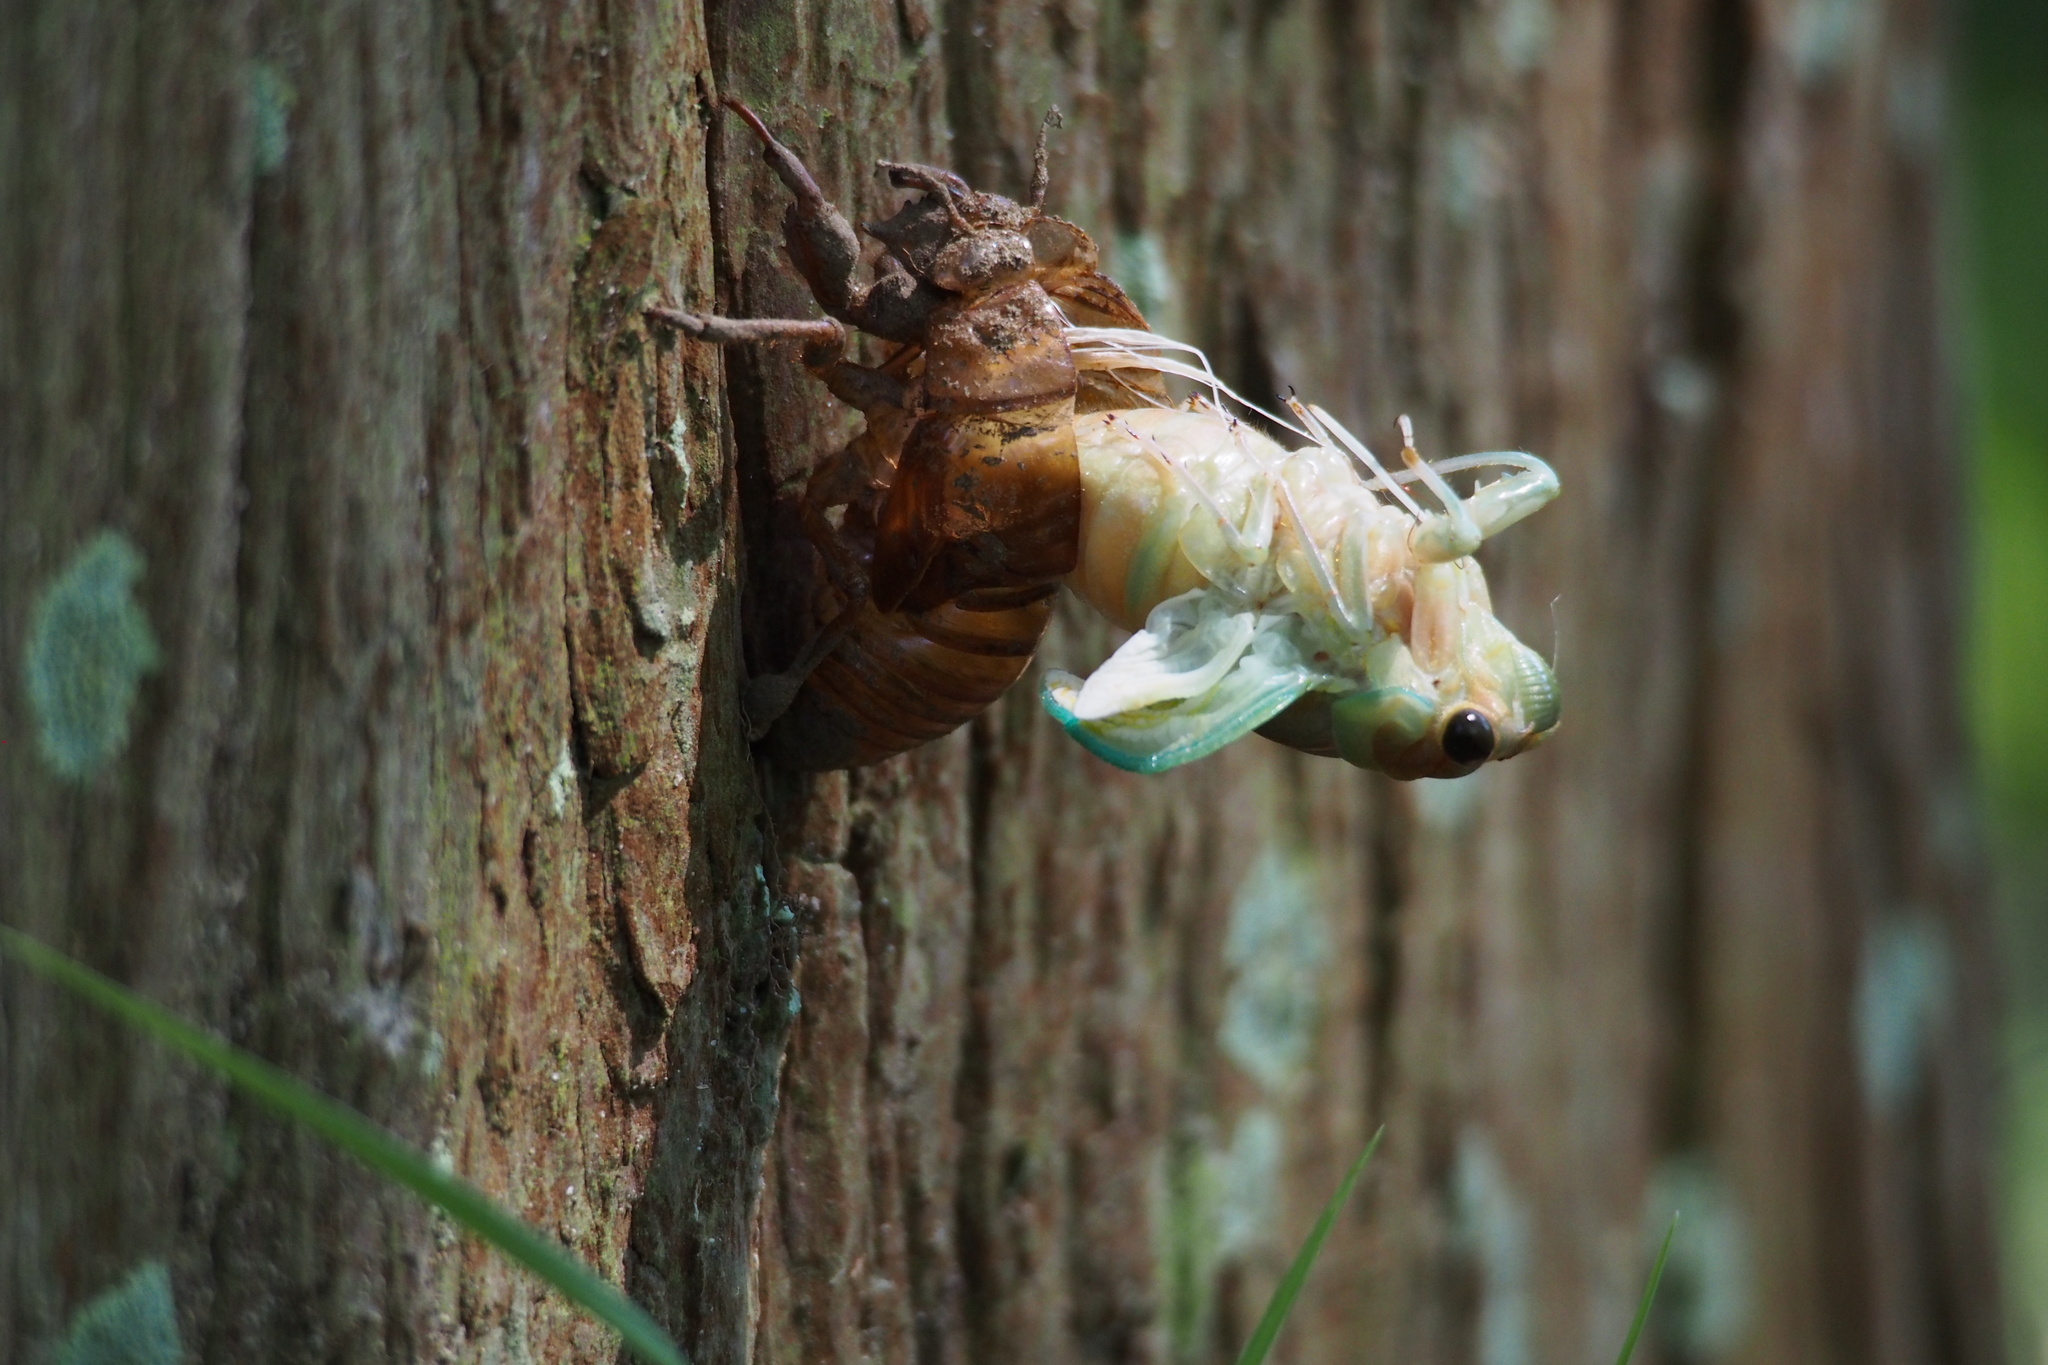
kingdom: Animalia
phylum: Arthropoda
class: Insecta
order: Hemiptera
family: Cicadidae
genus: Graptopsaltria
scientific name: Graptopsaltria nigrofuscata
